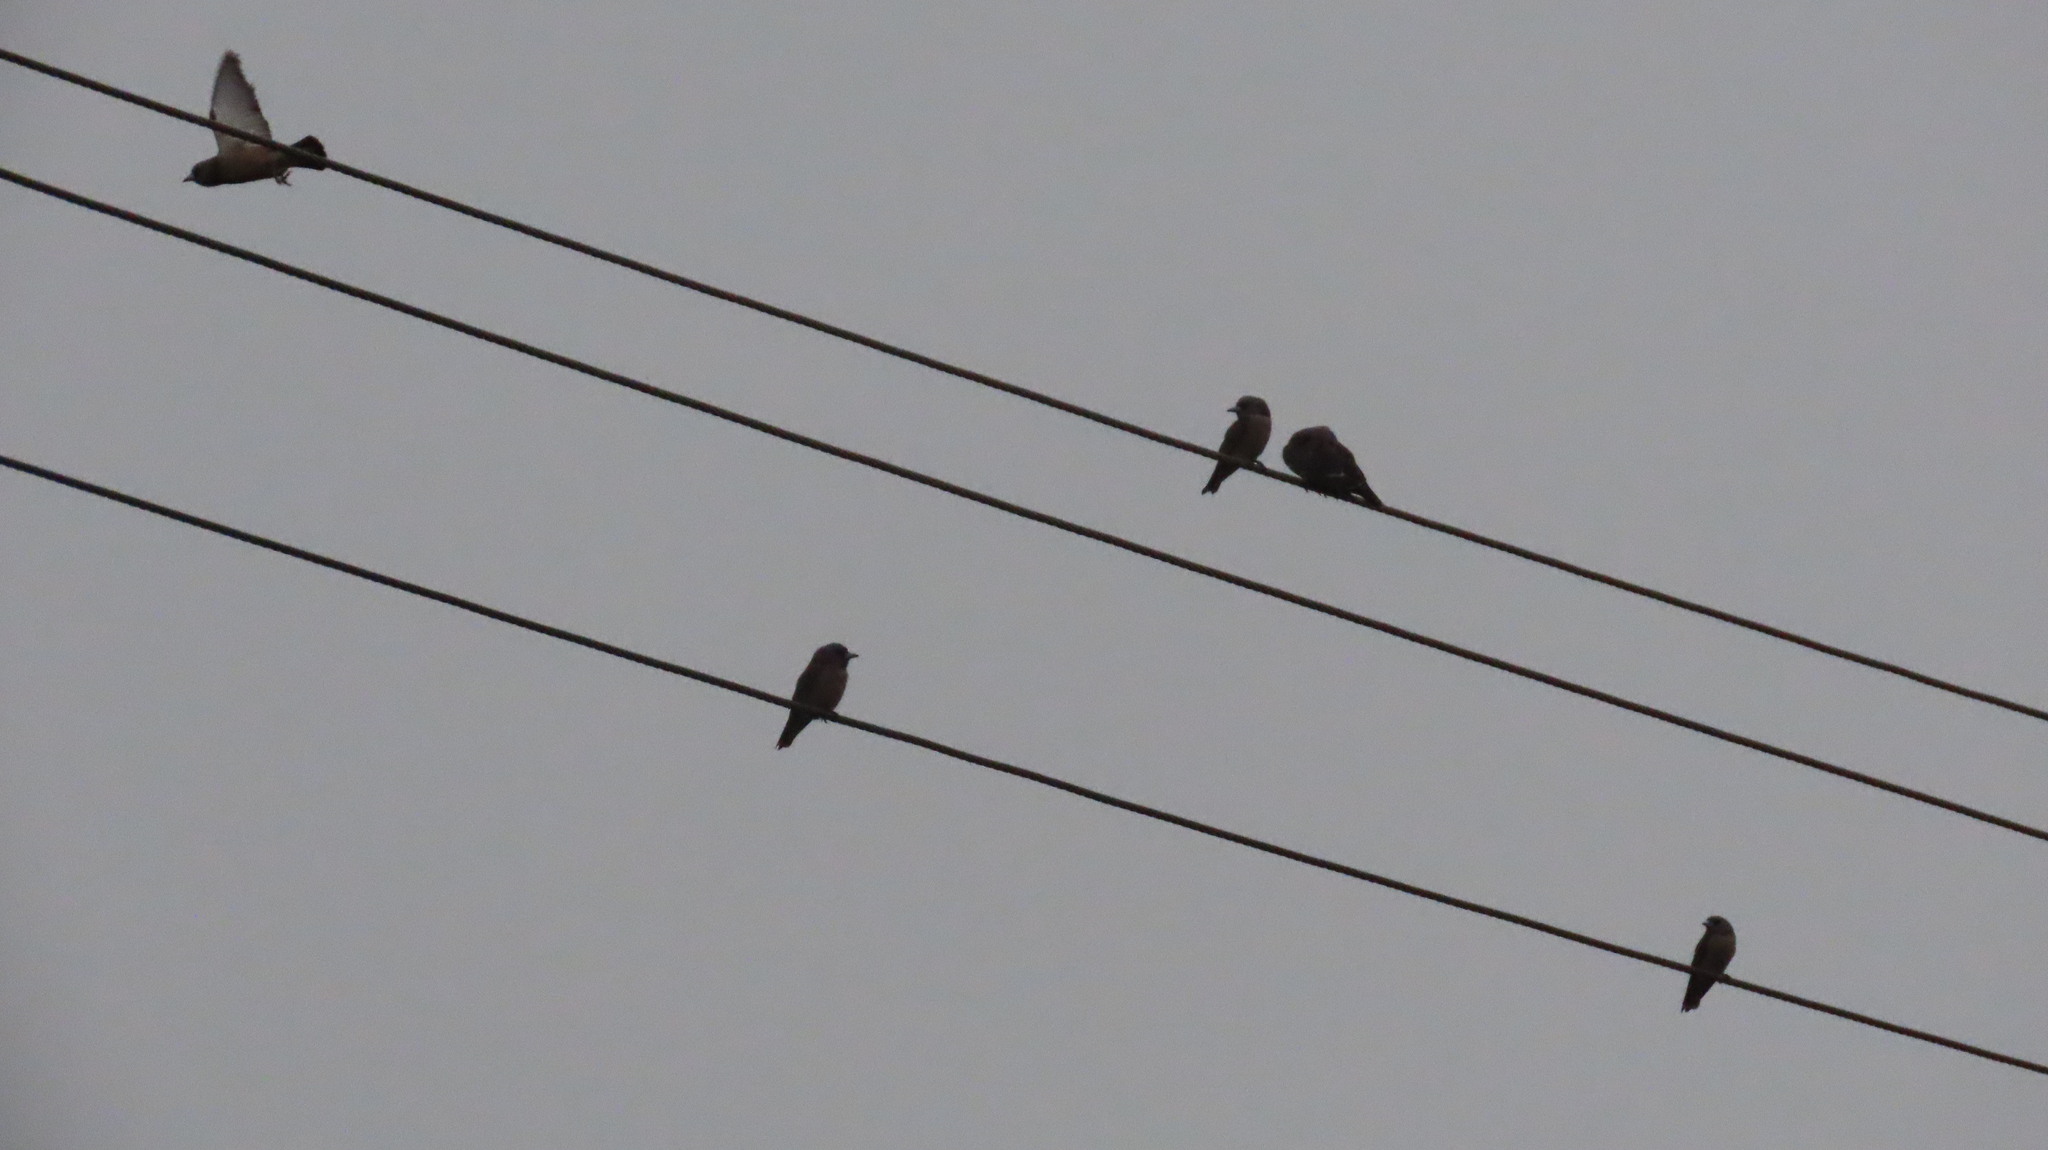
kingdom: Animalia
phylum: Chordata
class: Aves
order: Passeriformes
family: Artamidae
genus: Artamus
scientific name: Artamus fuscus
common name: Ashy woodswallow
